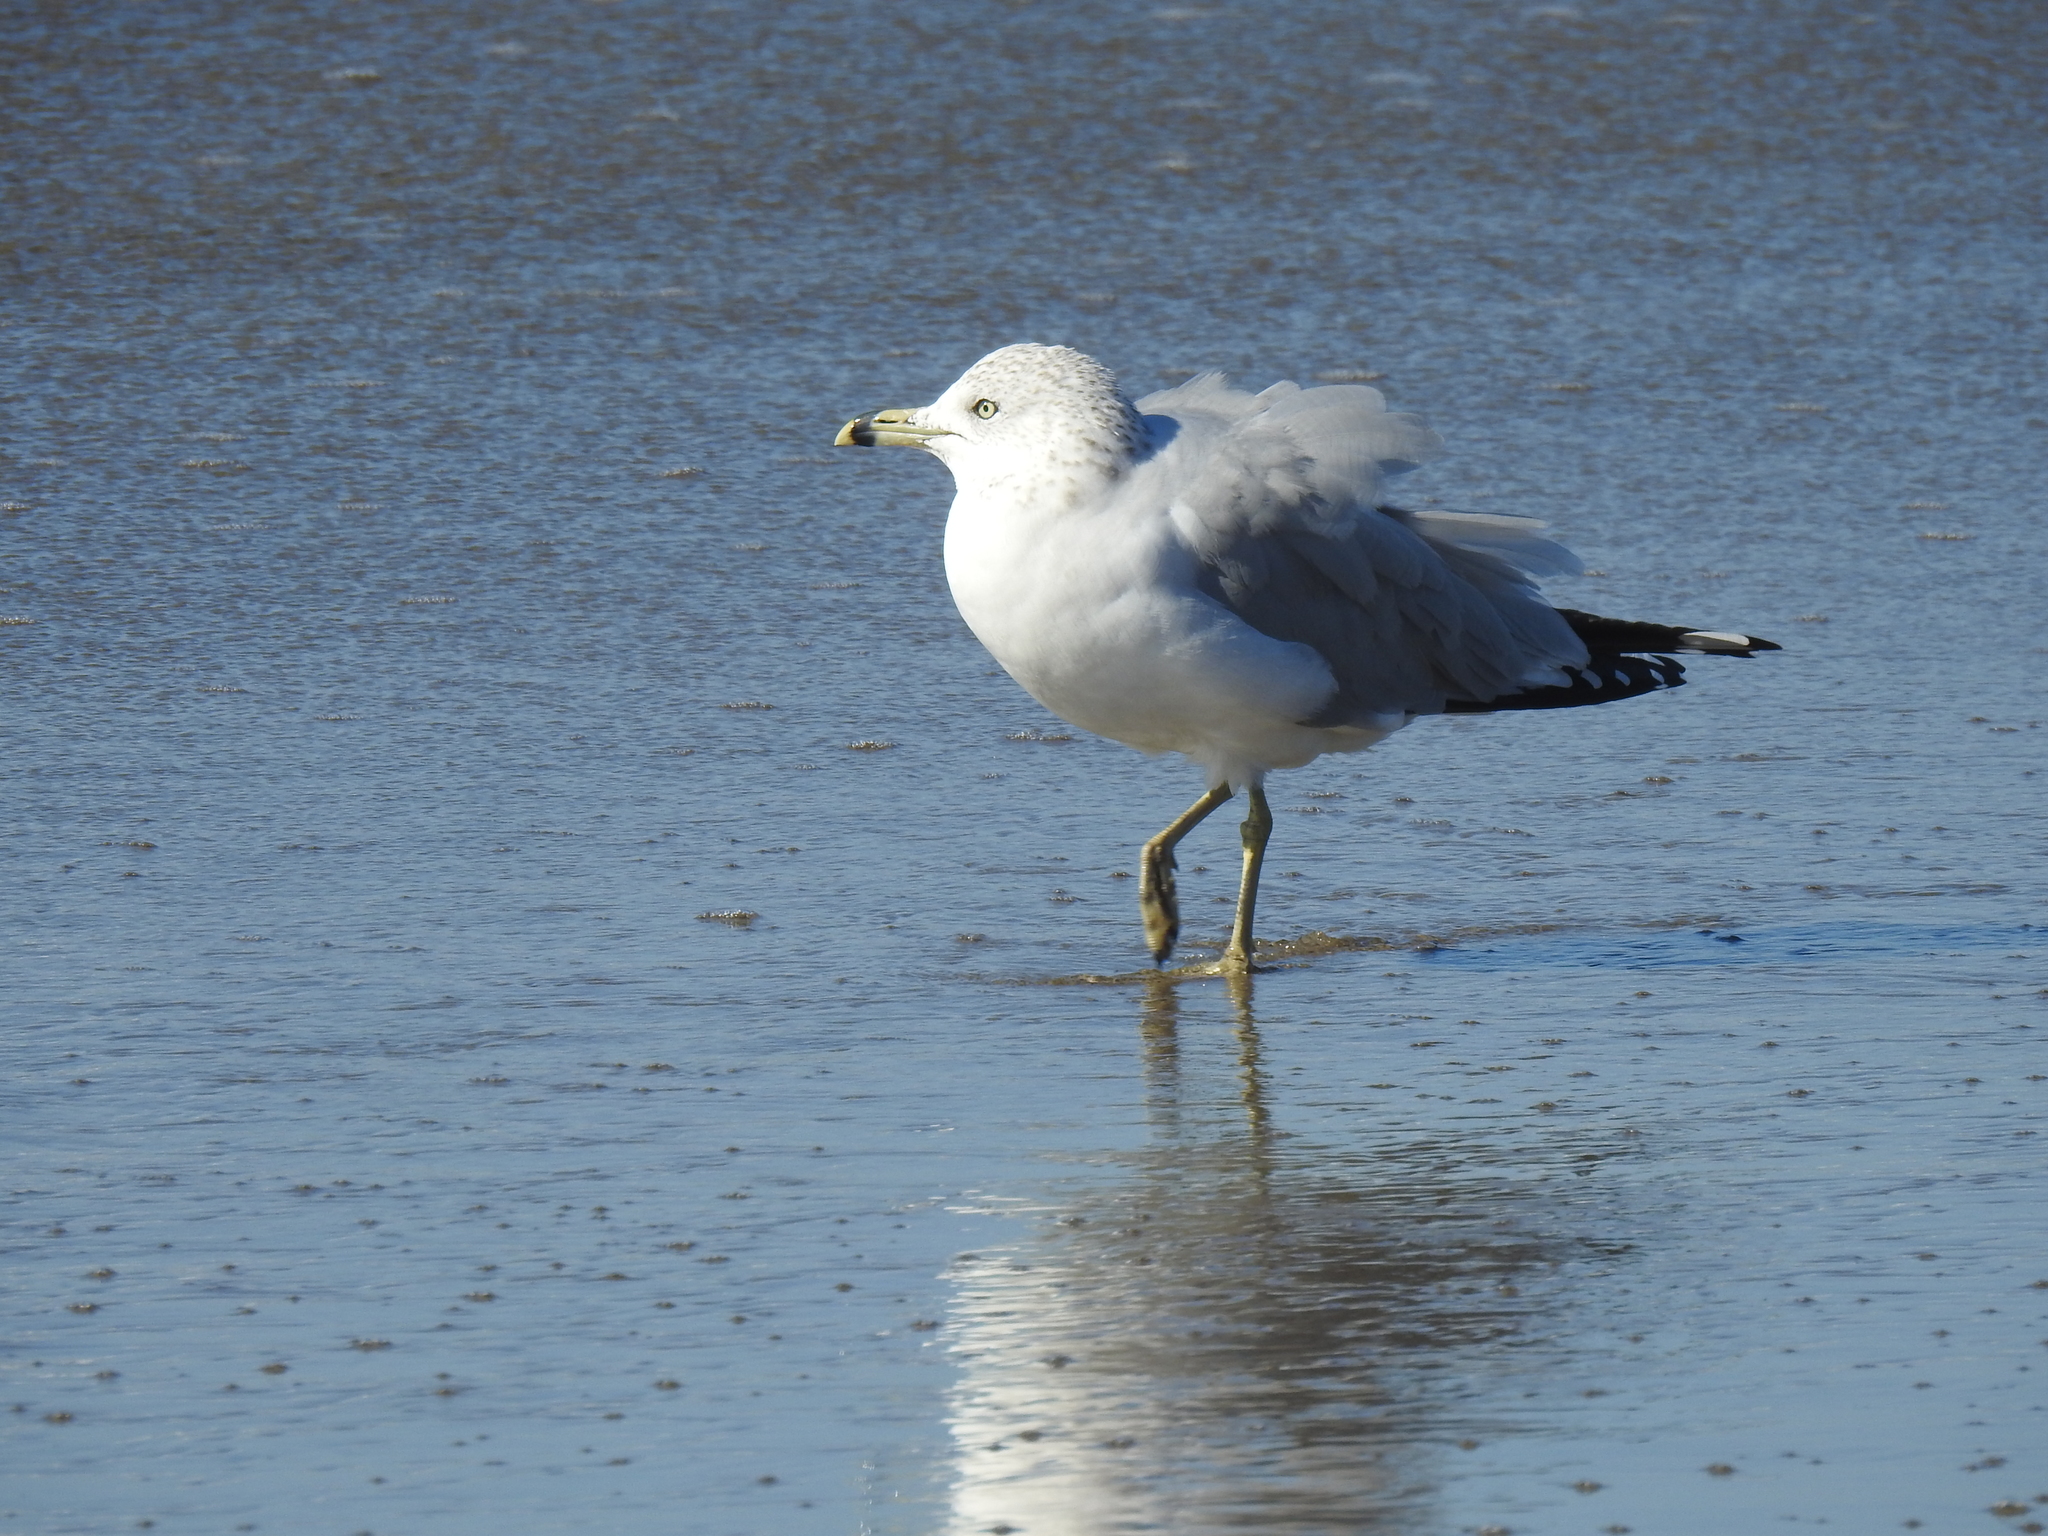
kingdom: Animalia
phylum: Chordata
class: Aves
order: Charadriiformes
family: Laridae
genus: Larus
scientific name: Larus delawarensis
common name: Ring-billed gull
